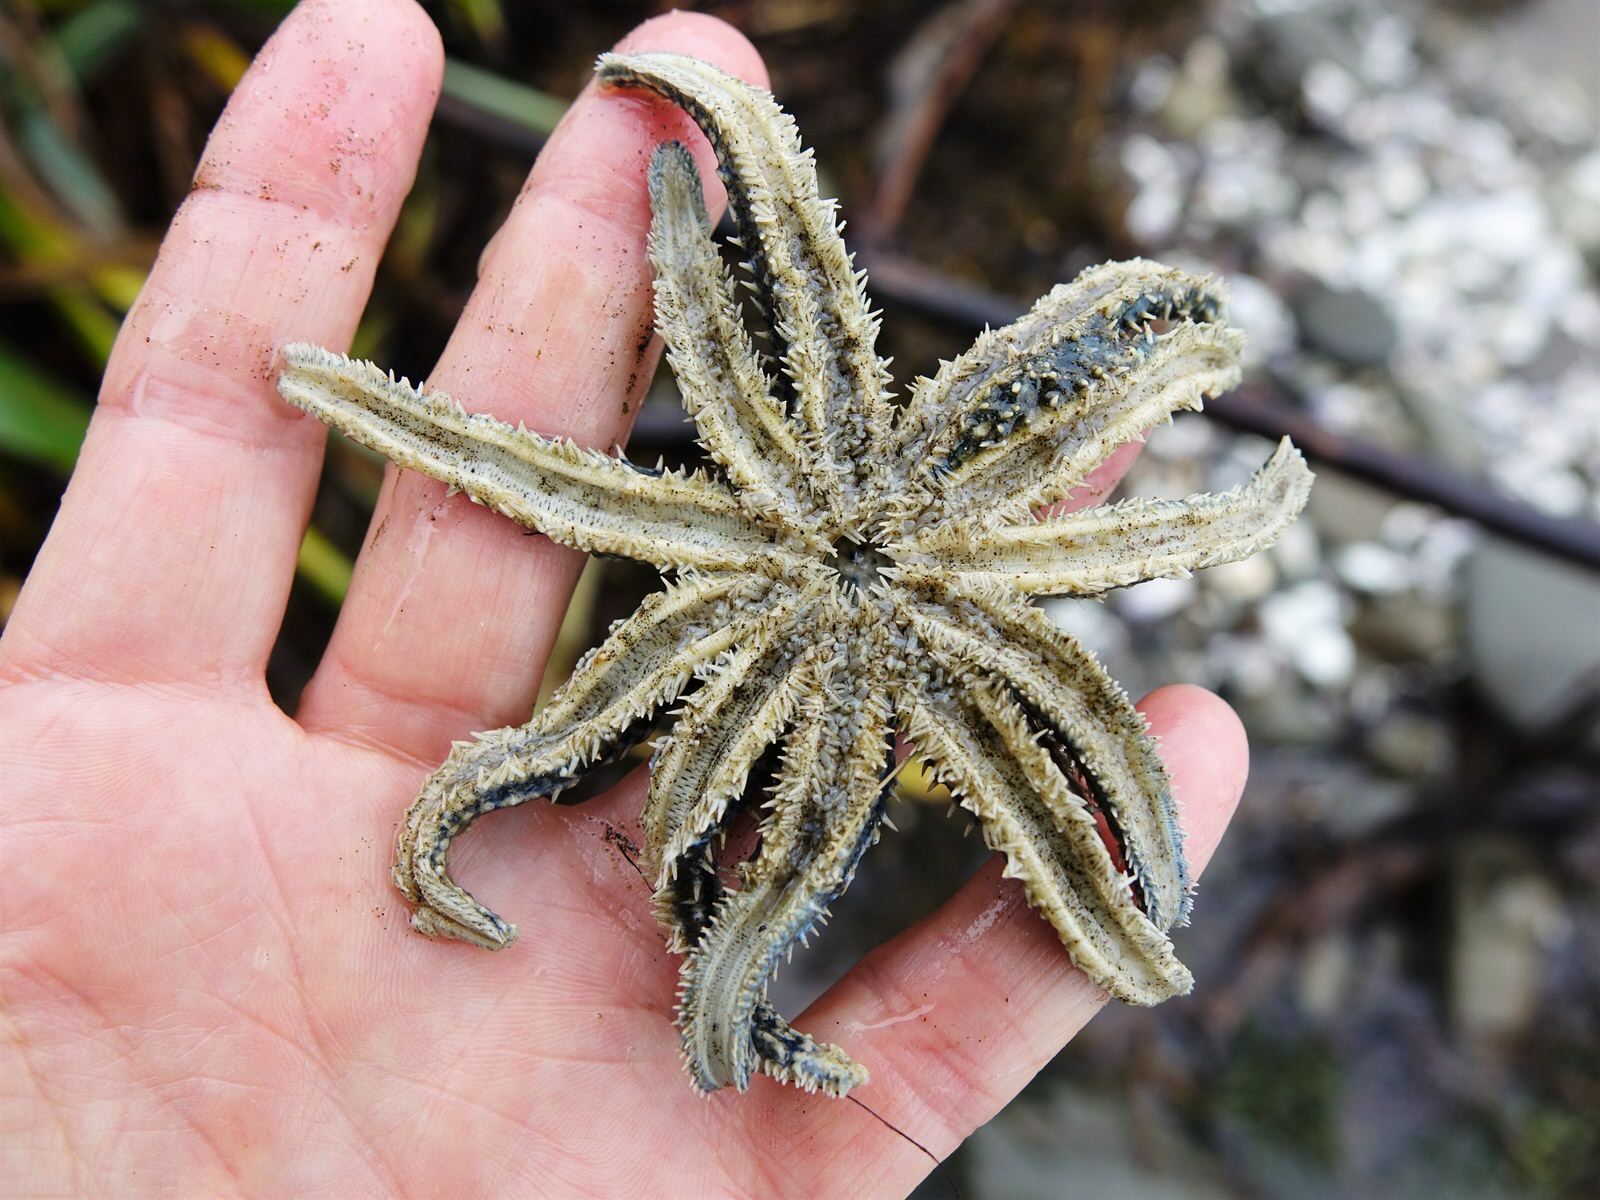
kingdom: Animalia
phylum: Echinodermata
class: Asteroidea
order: Forcipulatida
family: Asteriidae
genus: Coscinasterias
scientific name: Coscinasterias muricata
